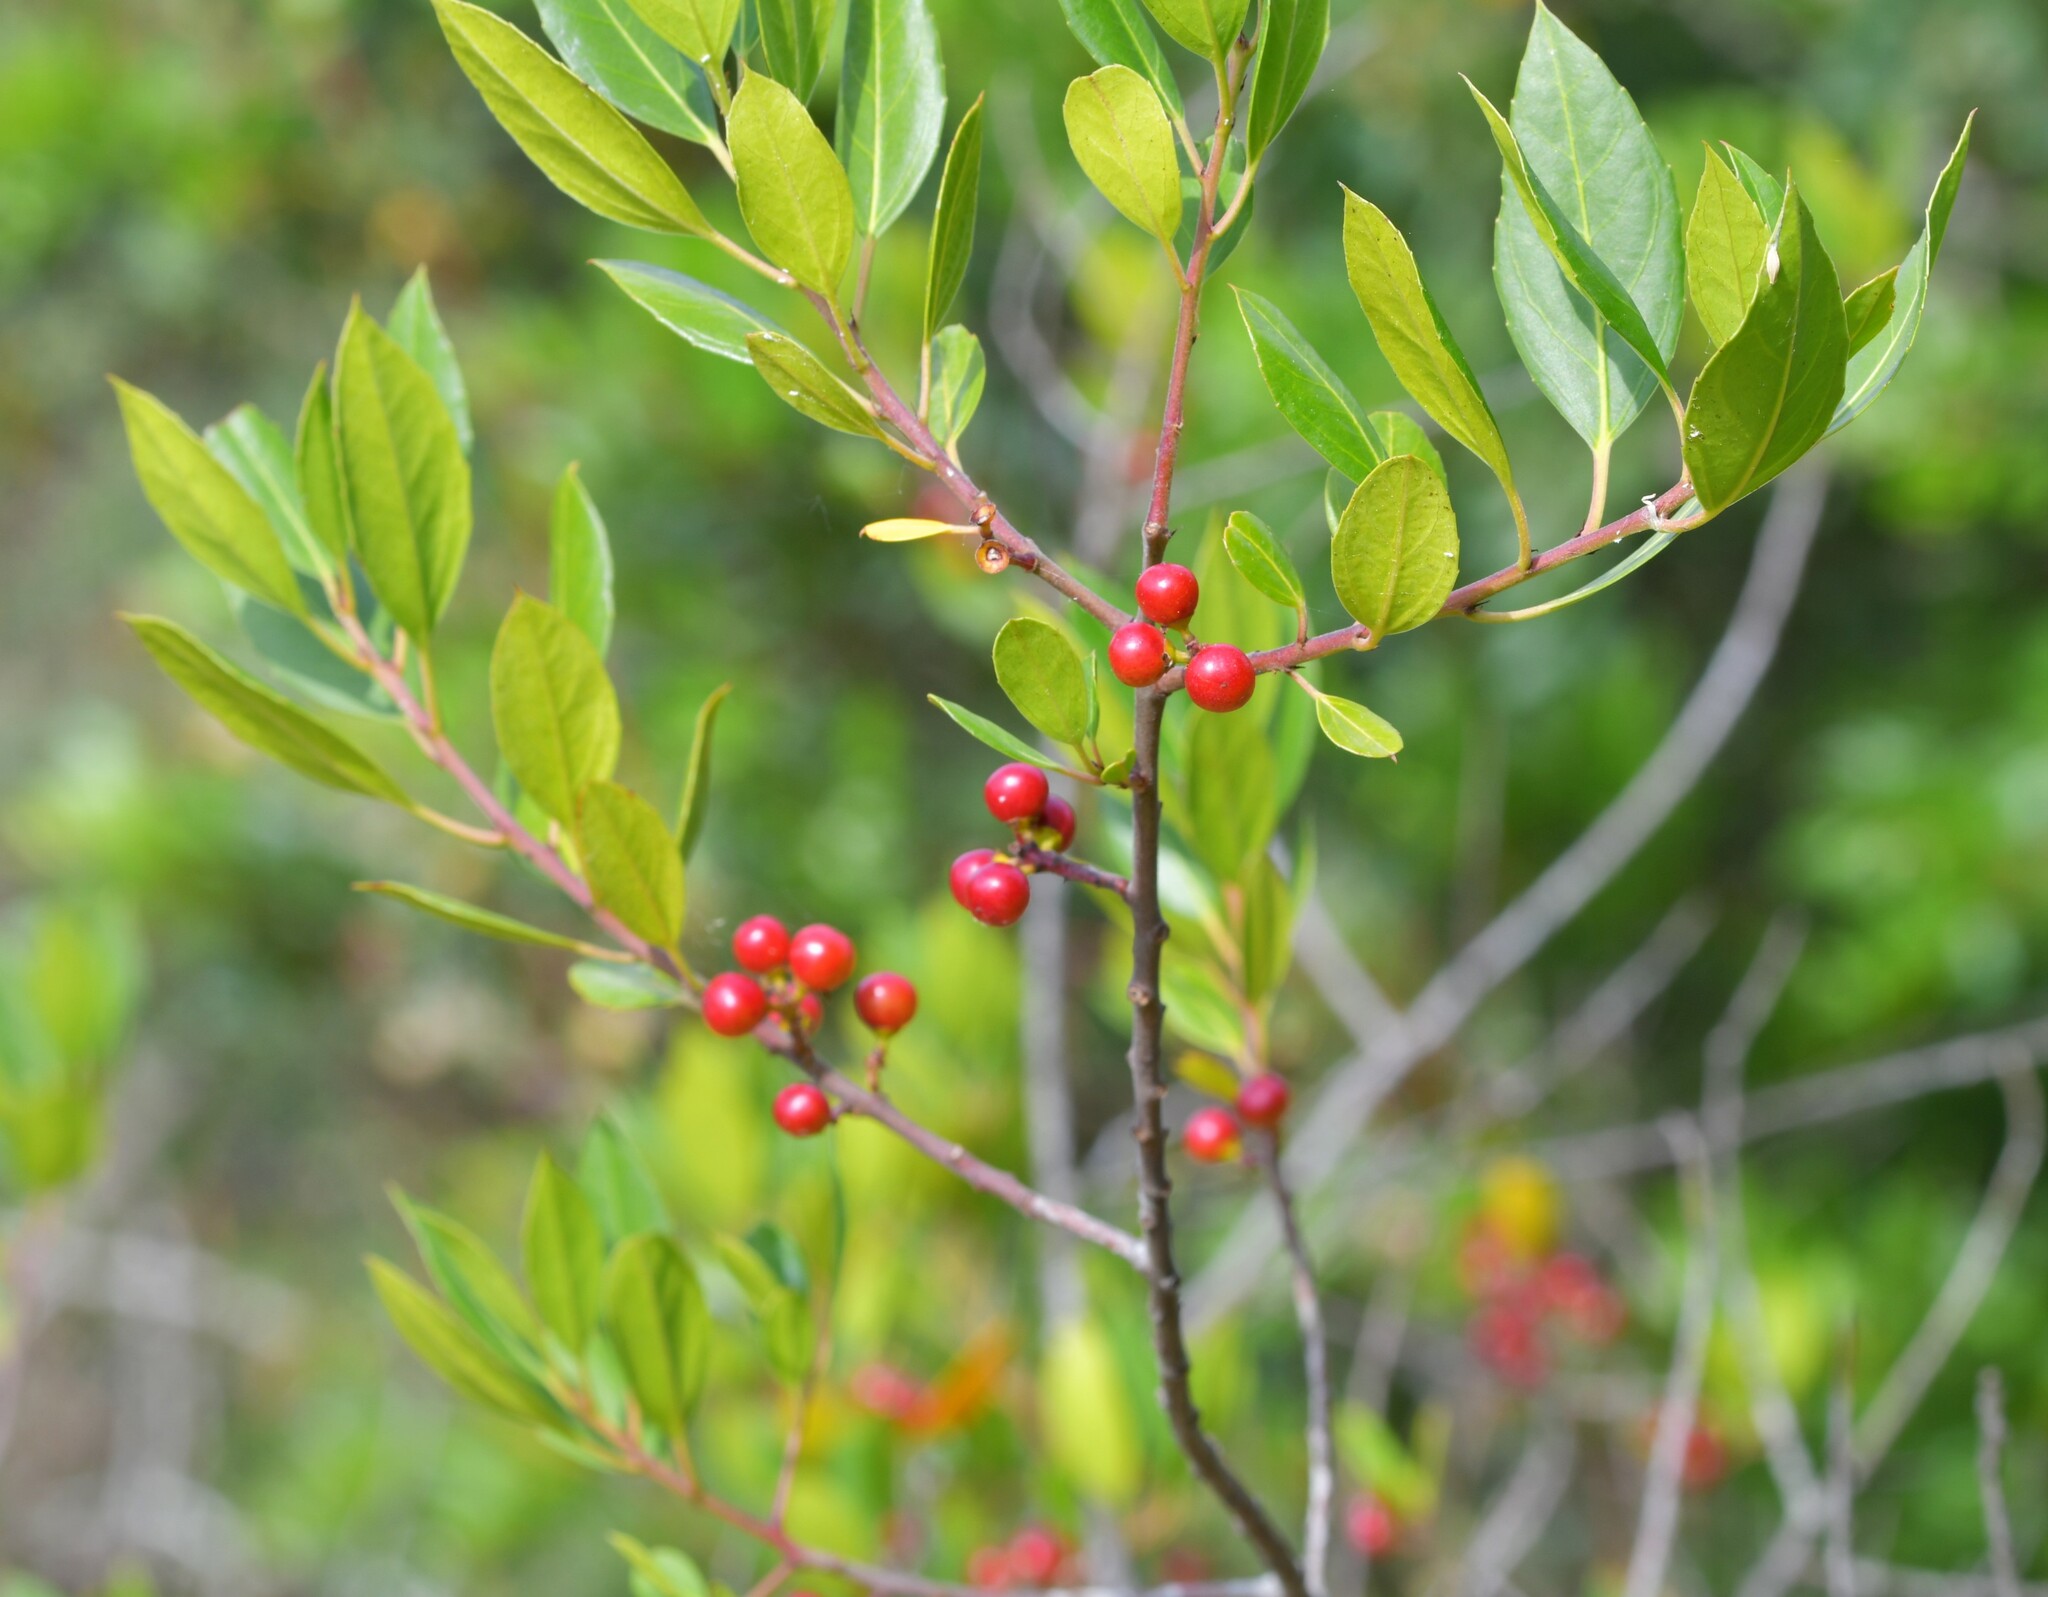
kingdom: Plantae
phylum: Tracheophyta
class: Magnoliopsida
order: Rosales
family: Rhamnaceae
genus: Rhamnus
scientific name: Rhamnus alaternus
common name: Mediterranean buckthorn
